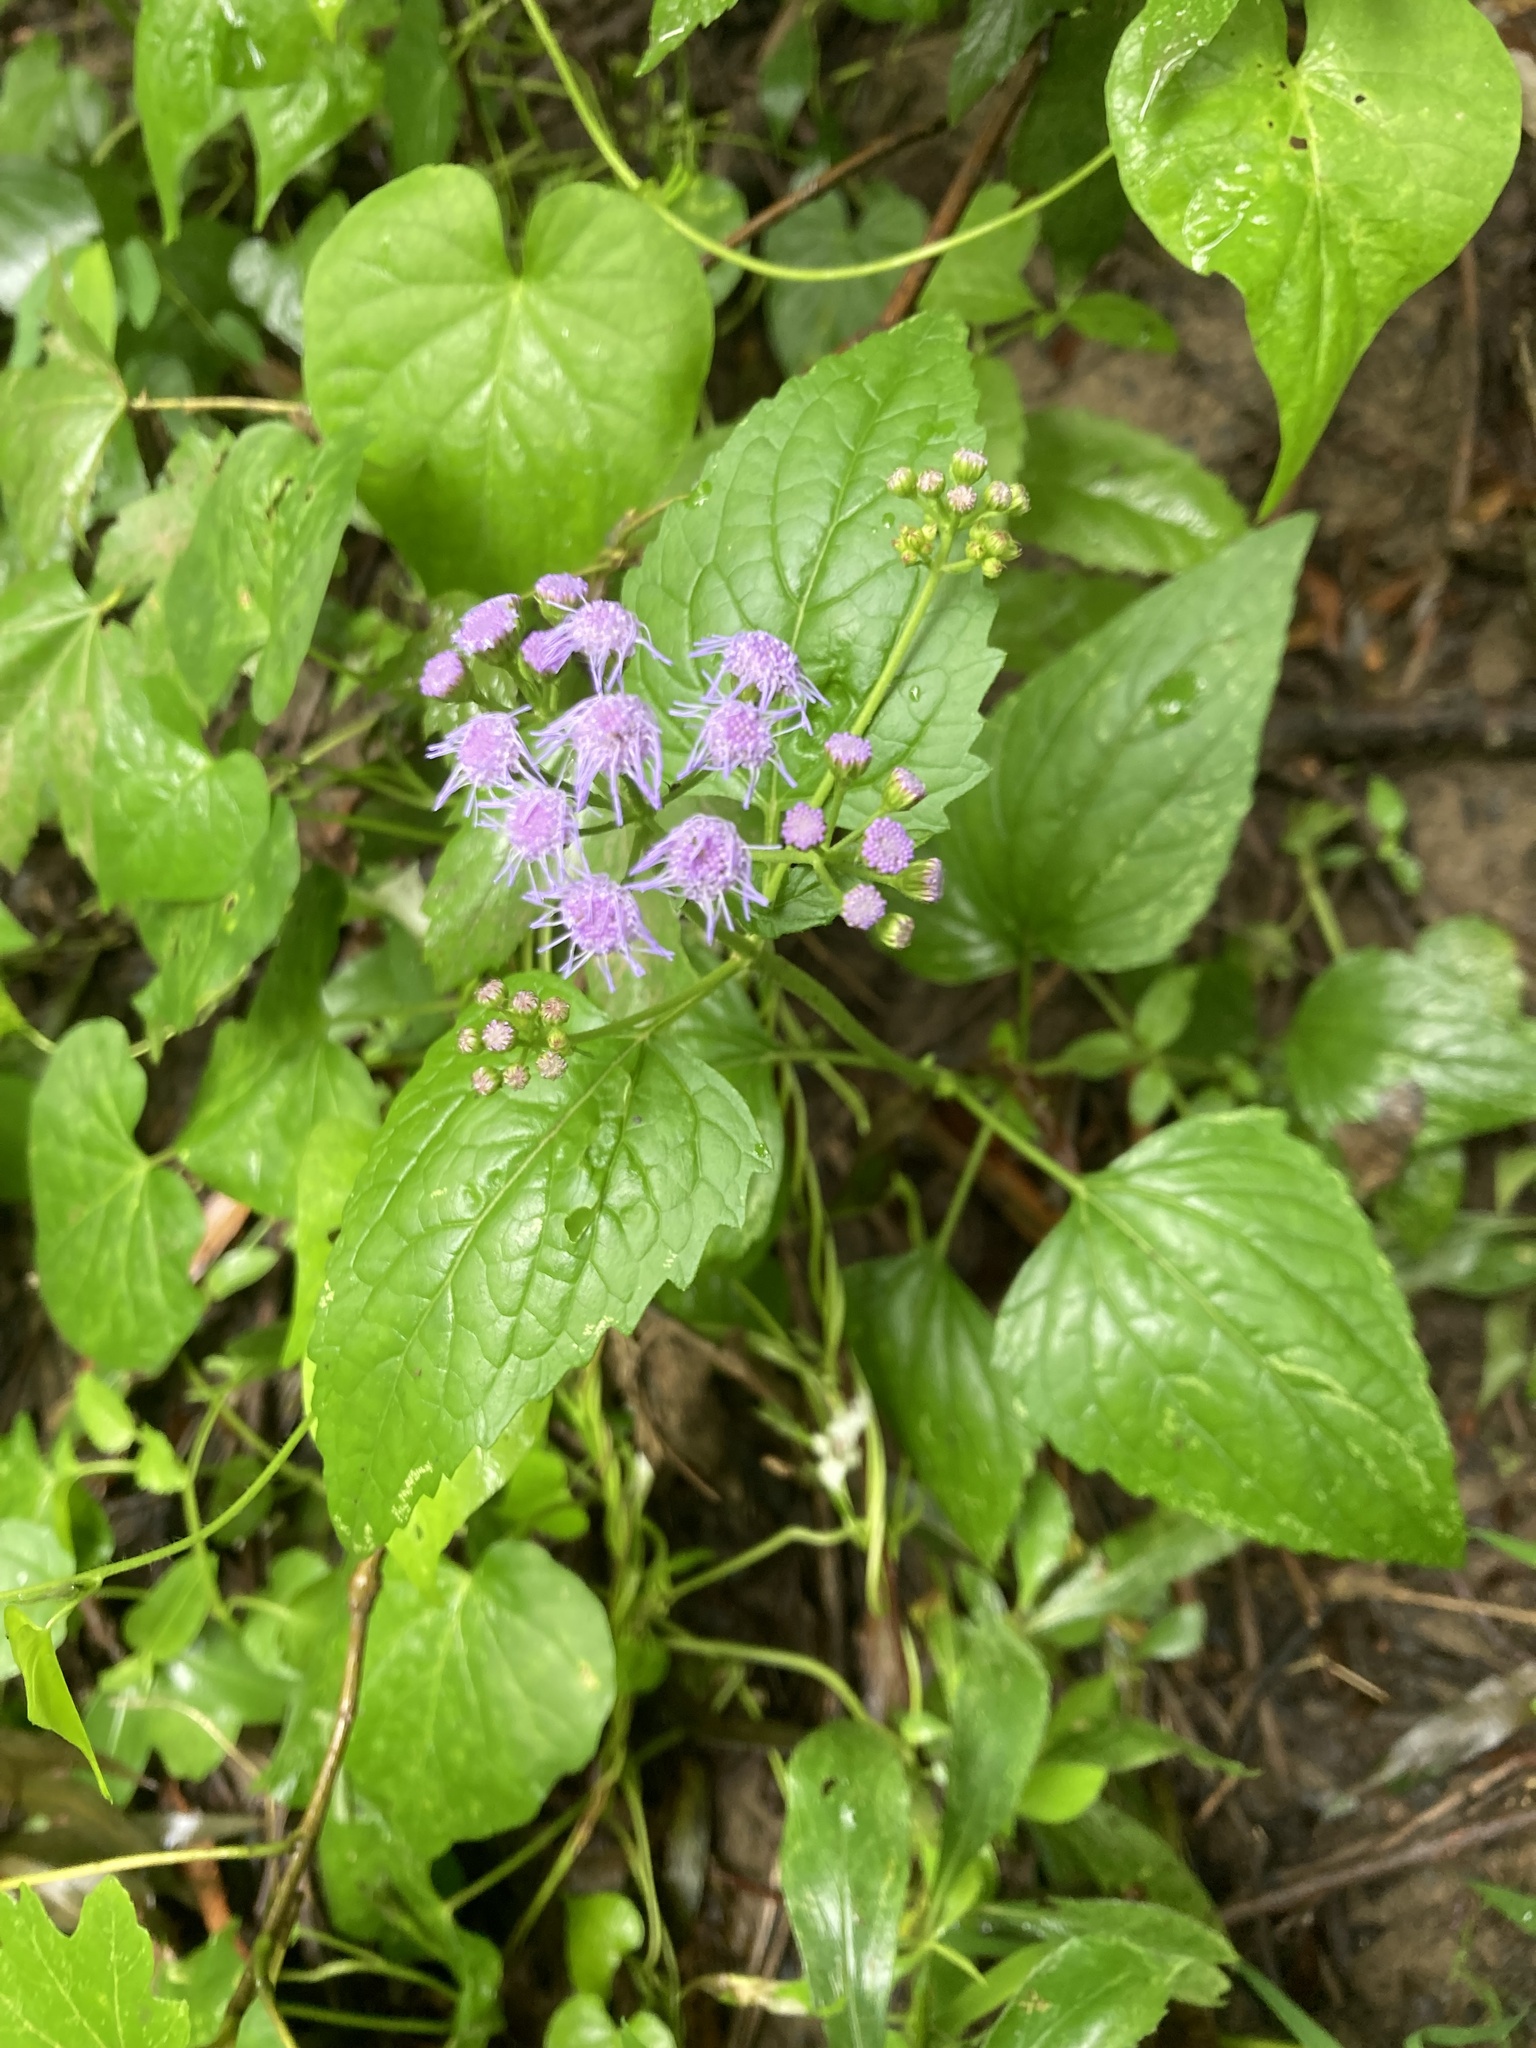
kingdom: Plantae
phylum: Tracheophyta
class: Magnoliopsida
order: Asterales
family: Asteraceae
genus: Conoclinium
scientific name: Conoclinium coelestinum
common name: Blue mistflower
